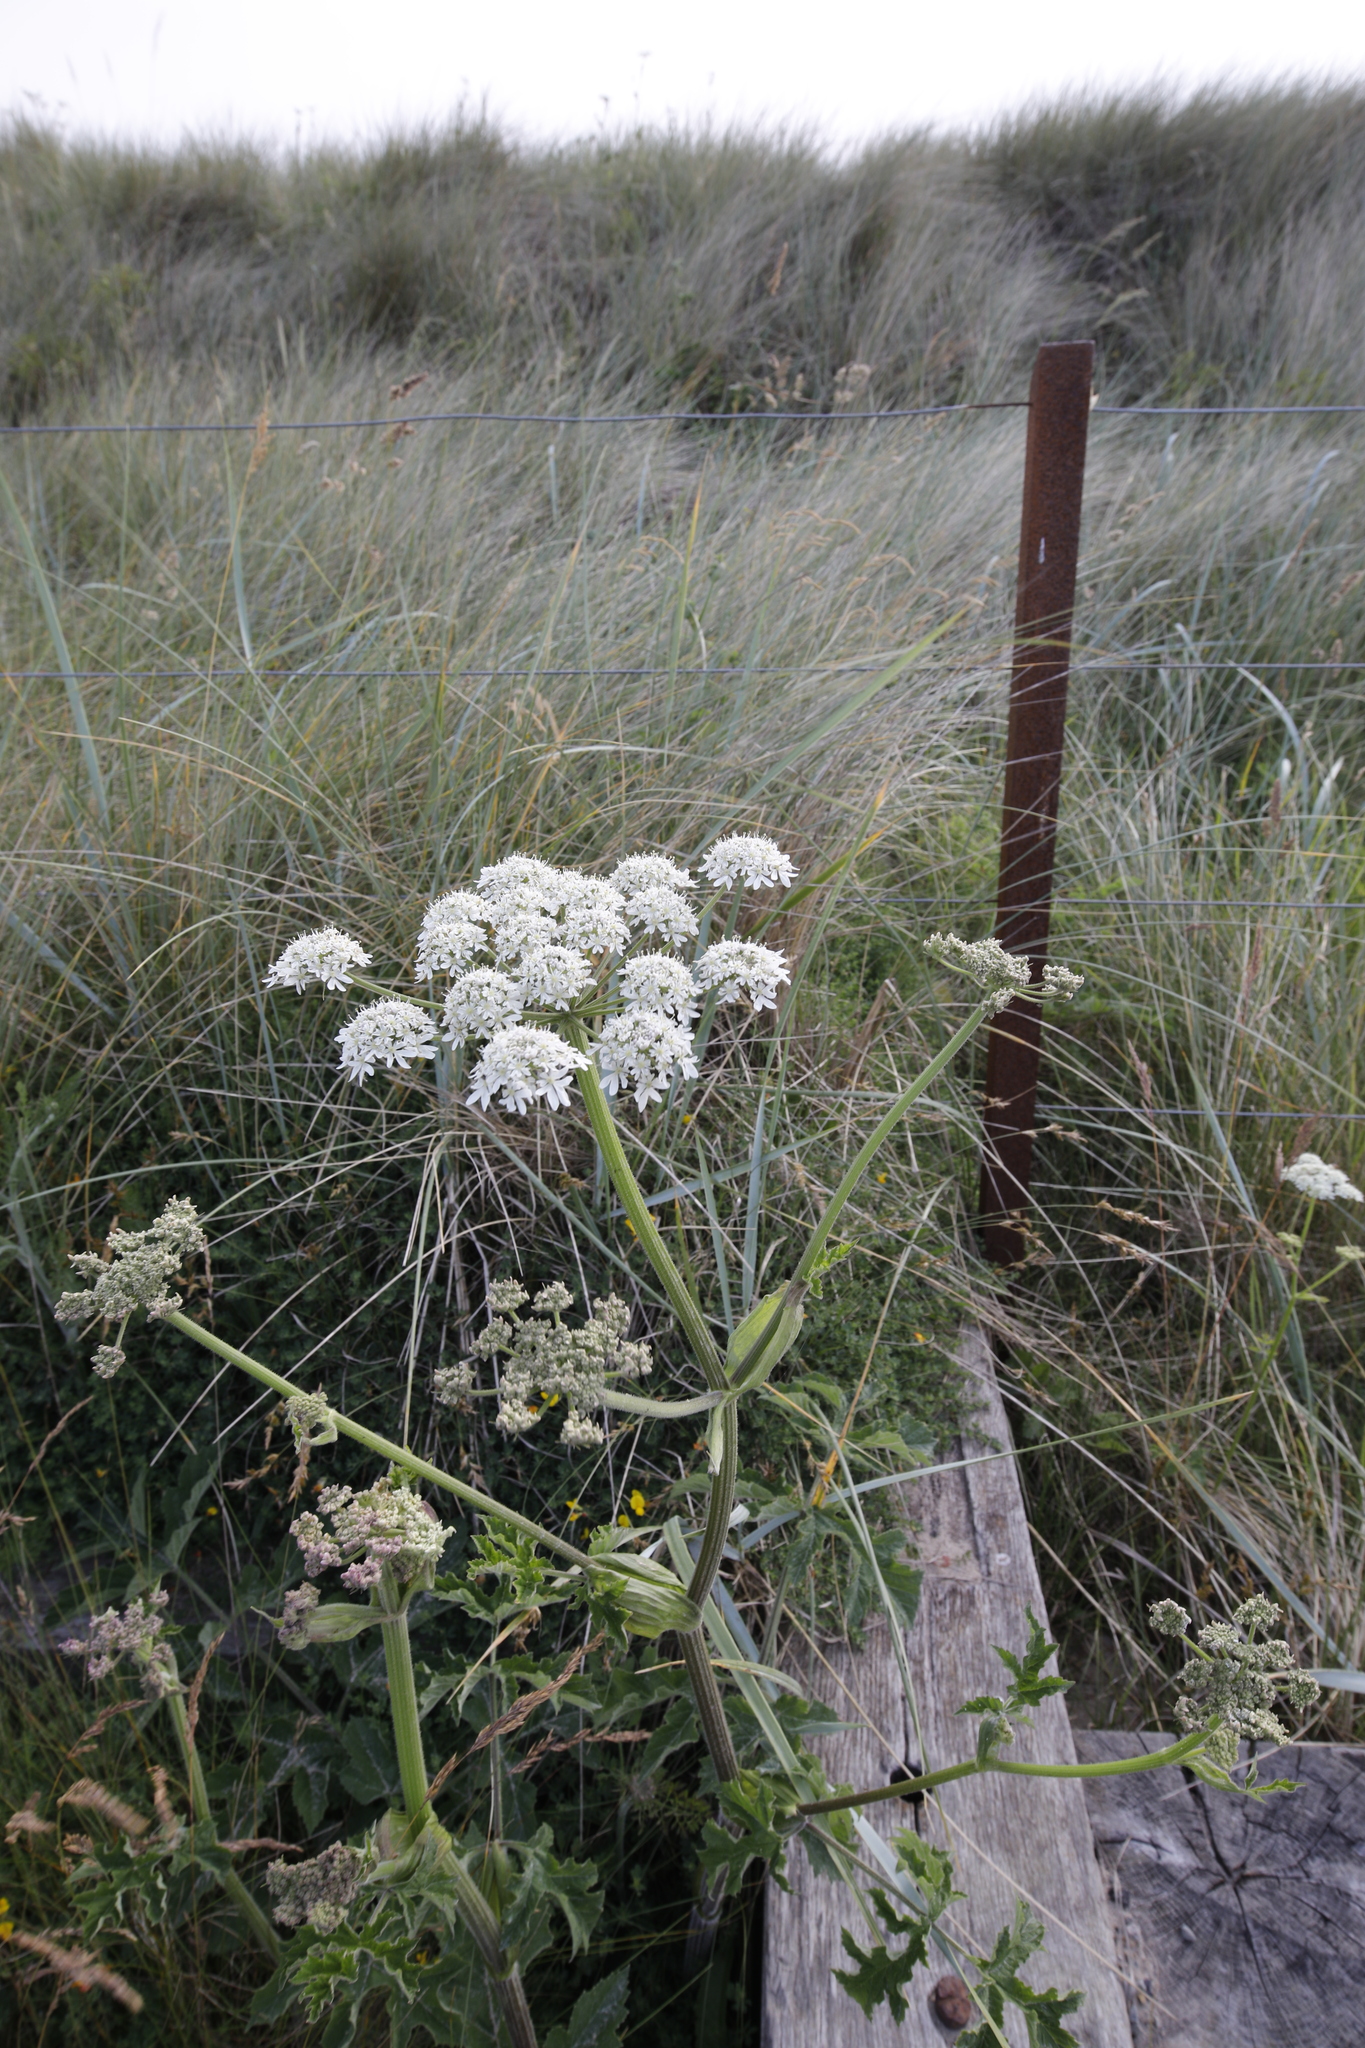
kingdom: Plantae
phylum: Tracheophyta
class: Magnoliopsida
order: Apiales
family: Apiaceae
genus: Heracleum
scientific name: Heracleum sphondylium
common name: Hogweed
